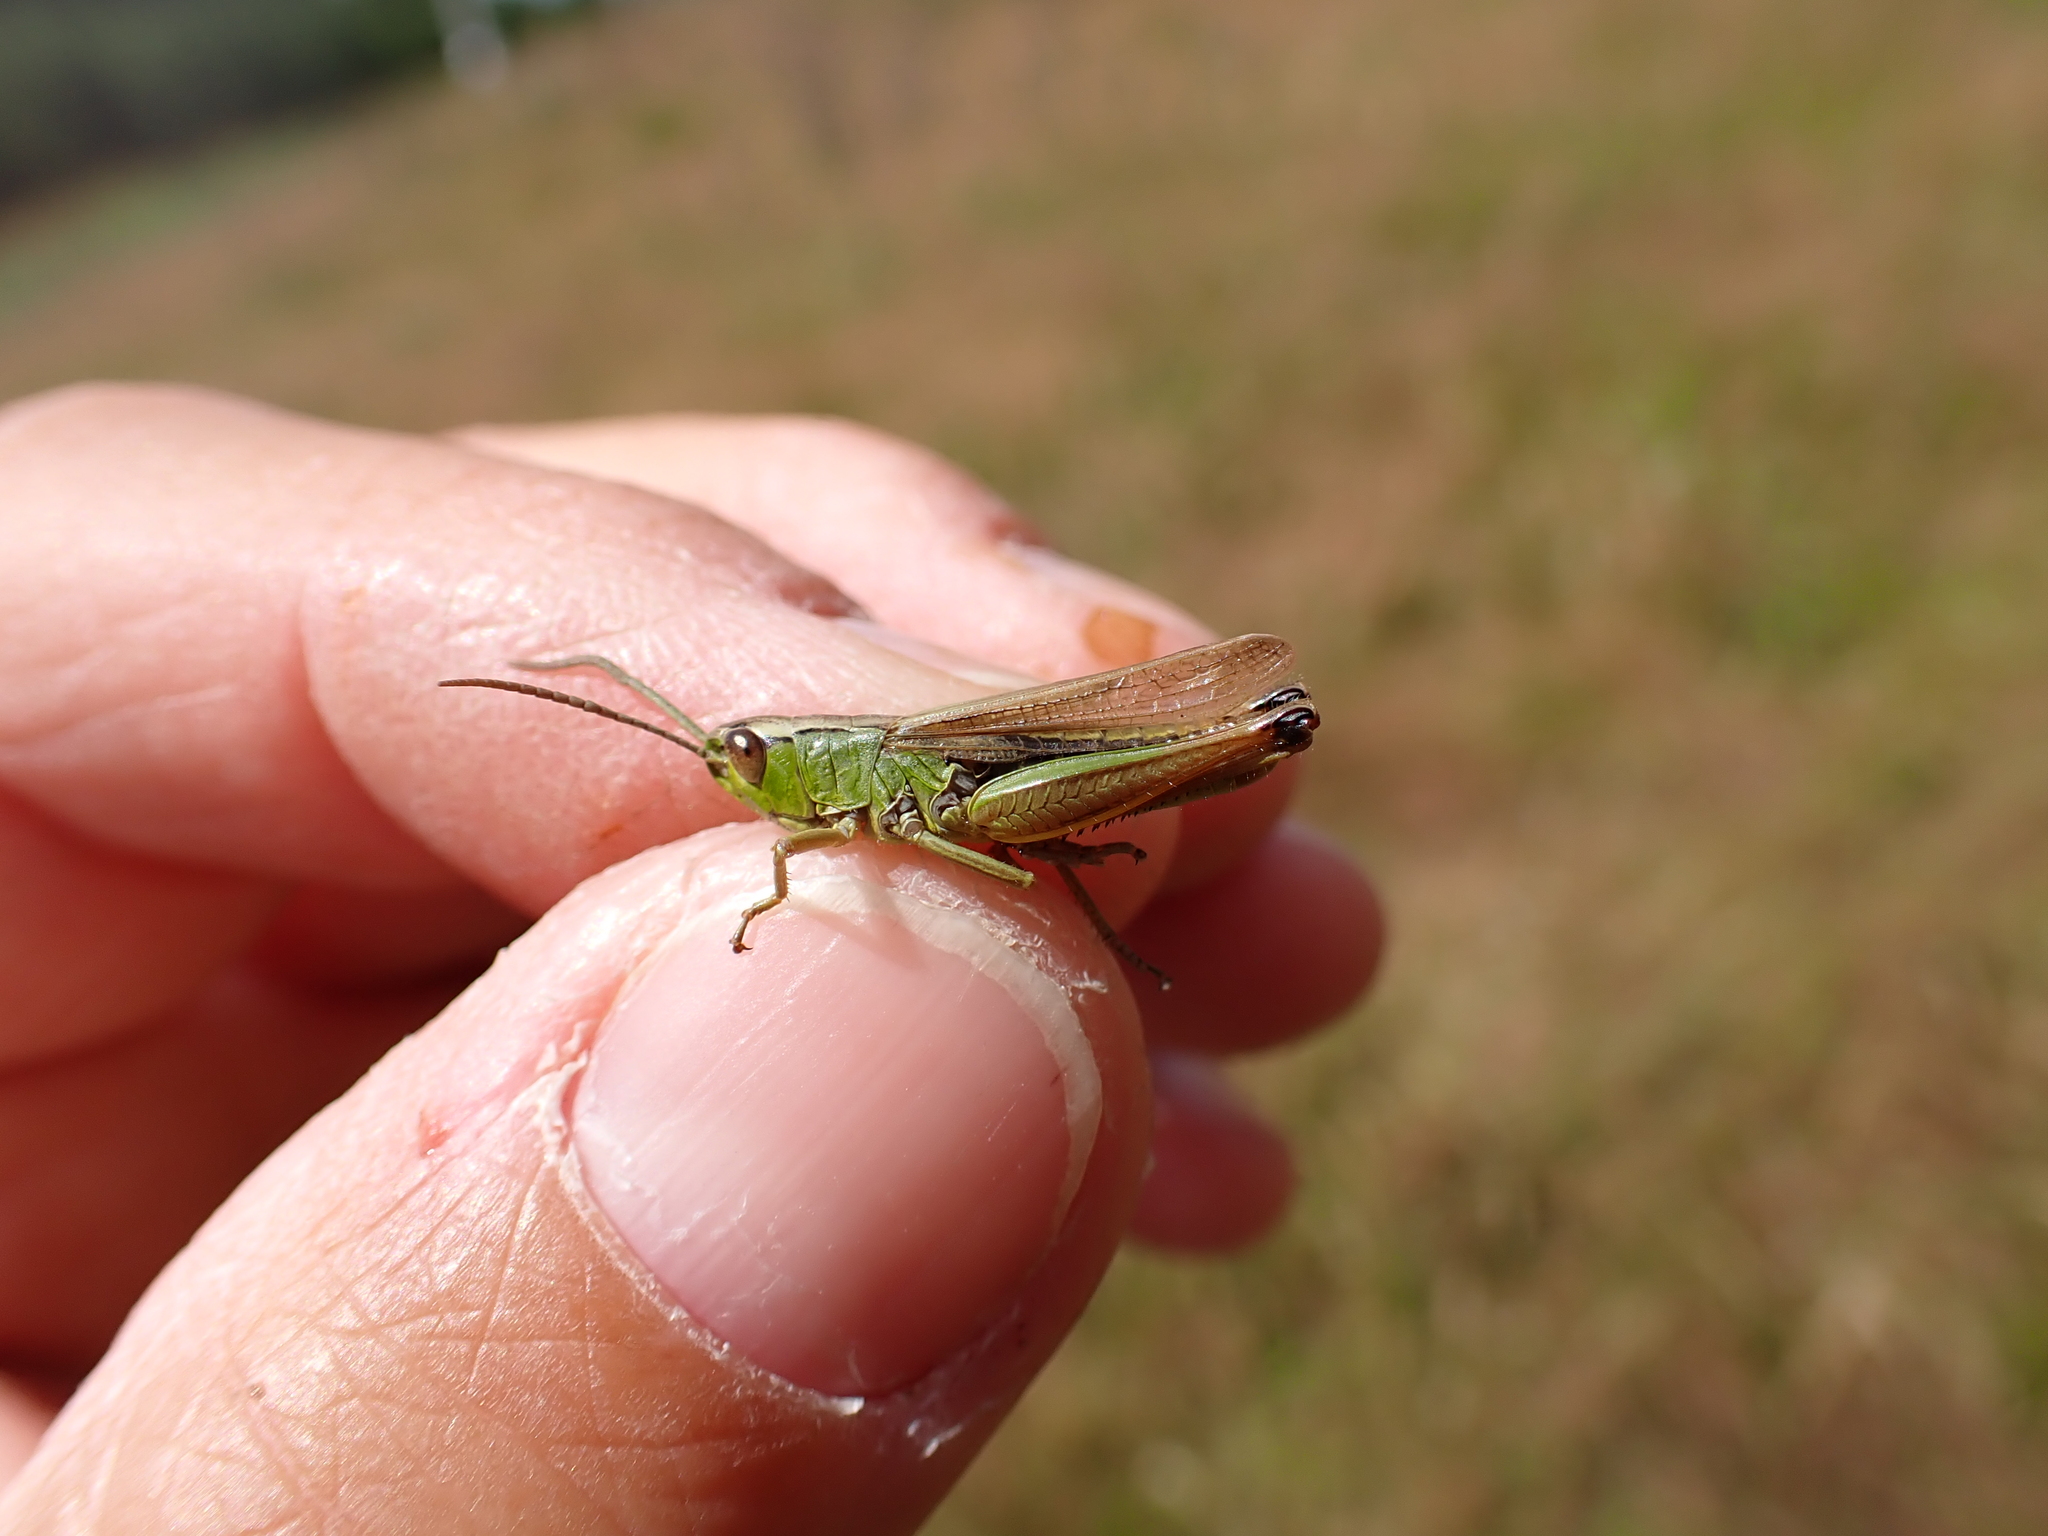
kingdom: Animalia
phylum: Arthropoda
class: Insecta
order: Orthoptera
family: Acrididae
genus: Pseudochorthippus
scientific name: Pseudochorthippus parallelus
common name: Meadow grasshopper
